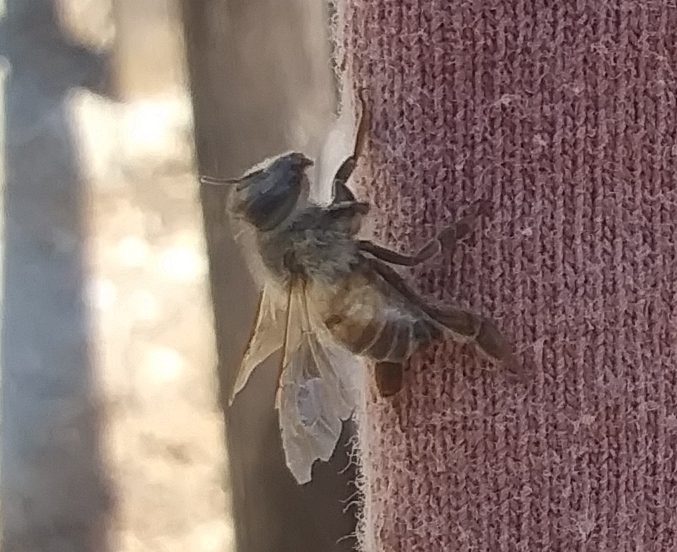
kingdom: Animalia
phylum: Arthropoda
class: Insecta
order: Hymenoptera
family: Apidae
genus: Apis
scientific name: Apis mellifera
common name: Honey bee
